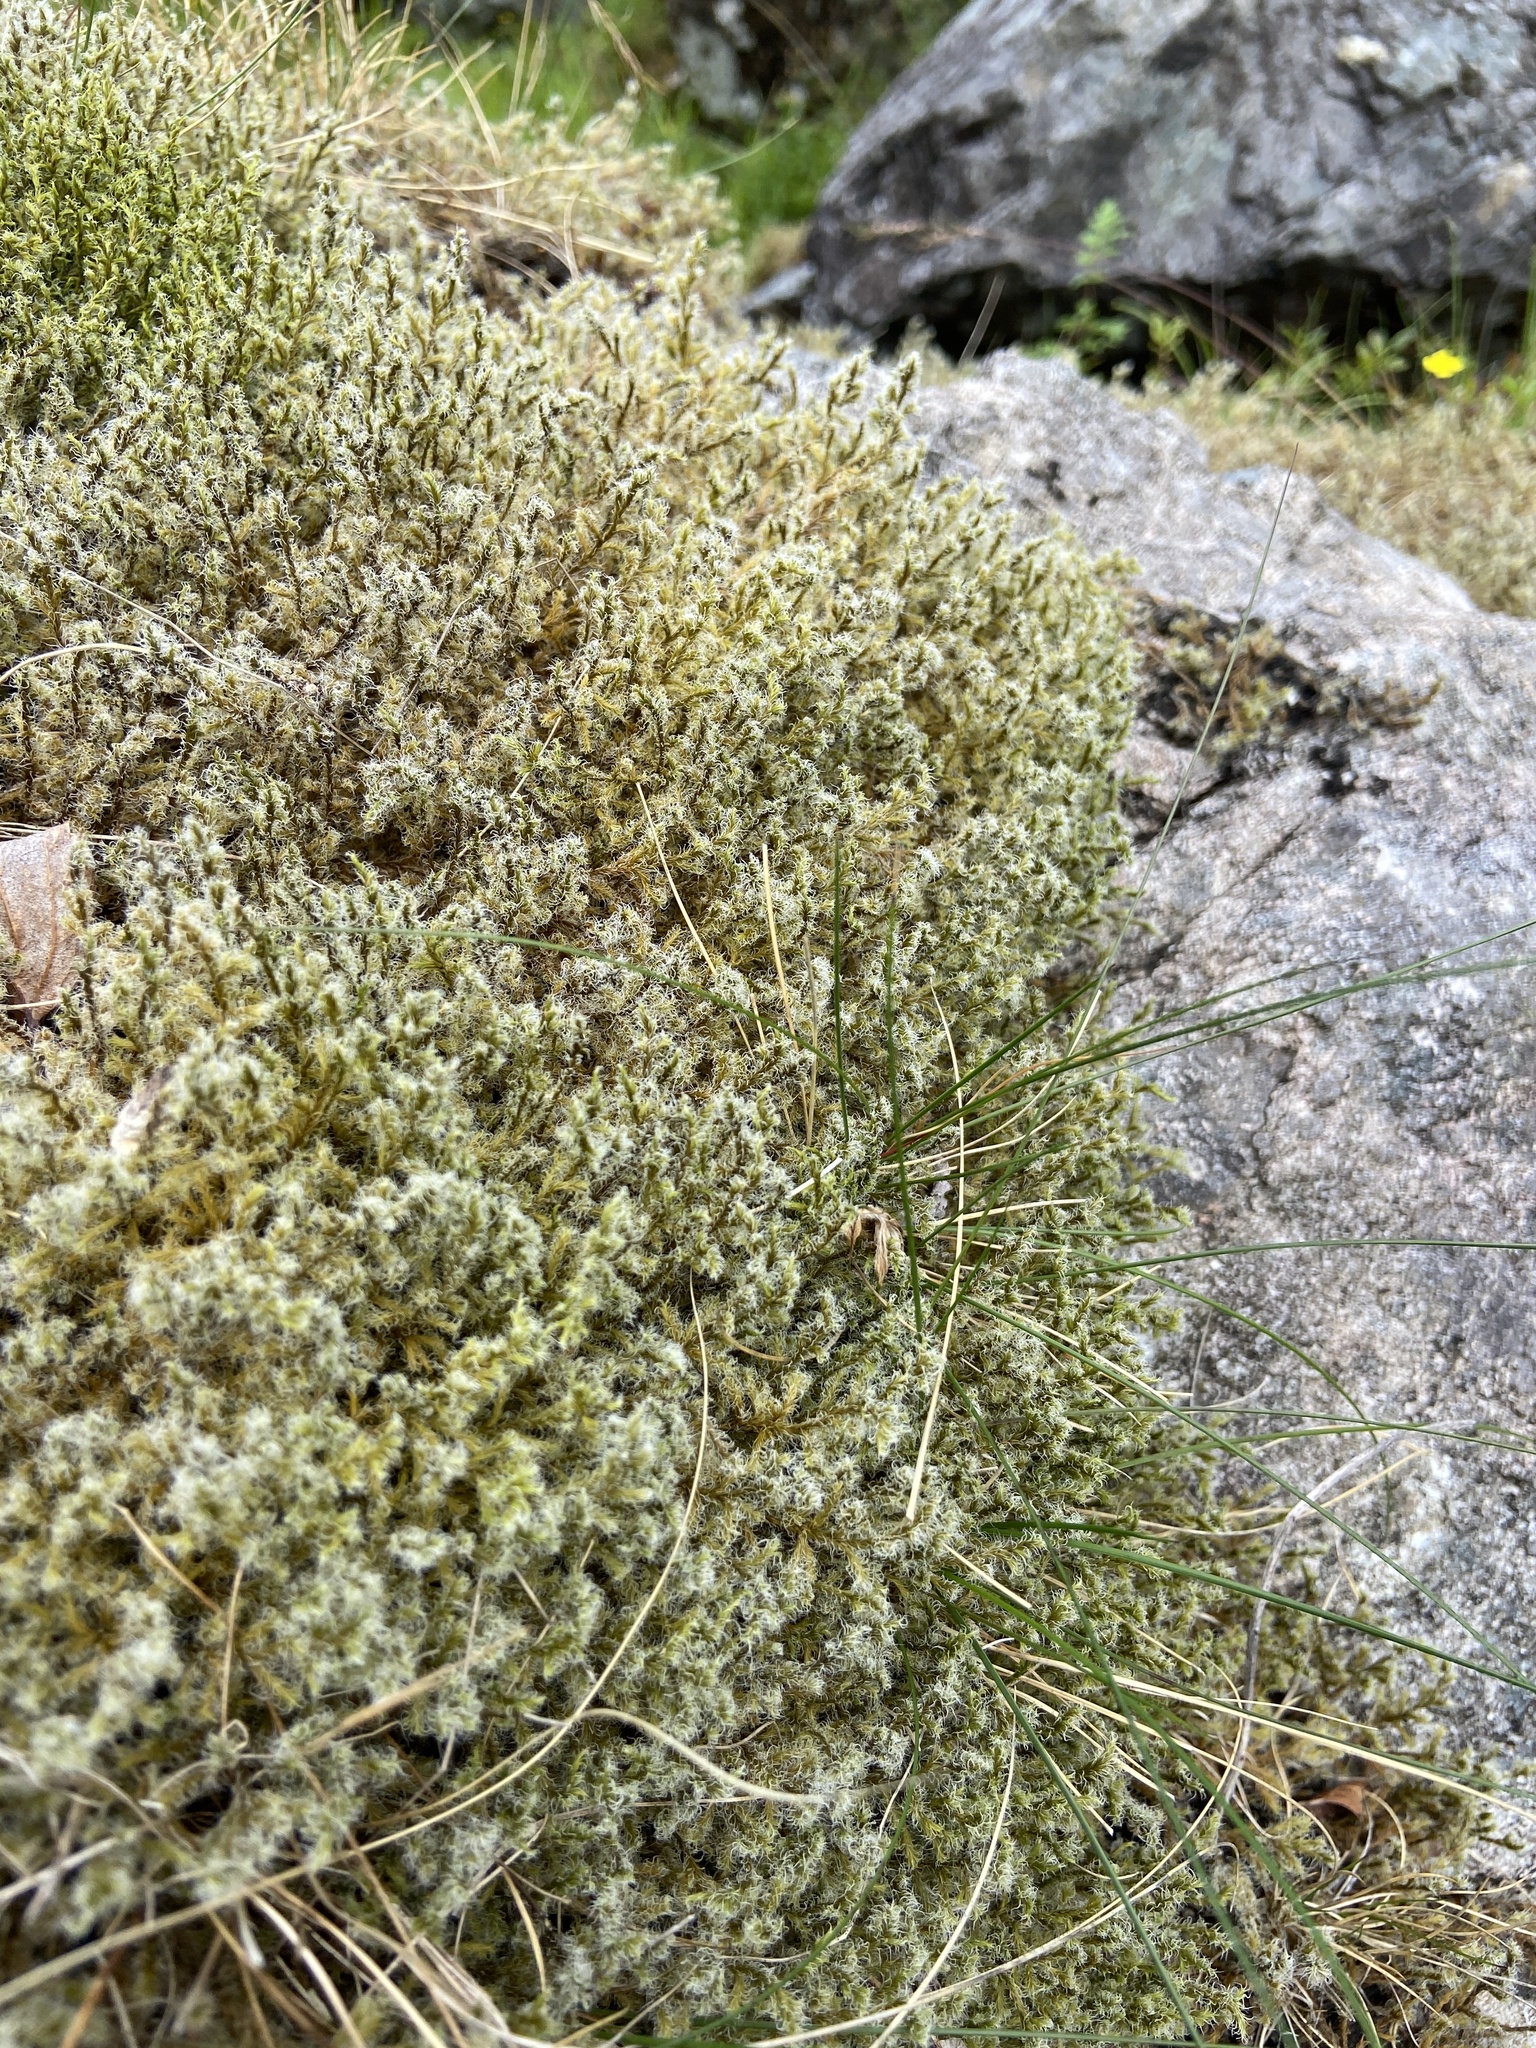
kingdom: Plantae
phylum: Bryophyta
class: Bryopsida
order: Grimmiales
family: Grimmiaceae
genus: Racomitrium
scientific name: Racomitrium lanuginosum
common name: Hoary rock moss
